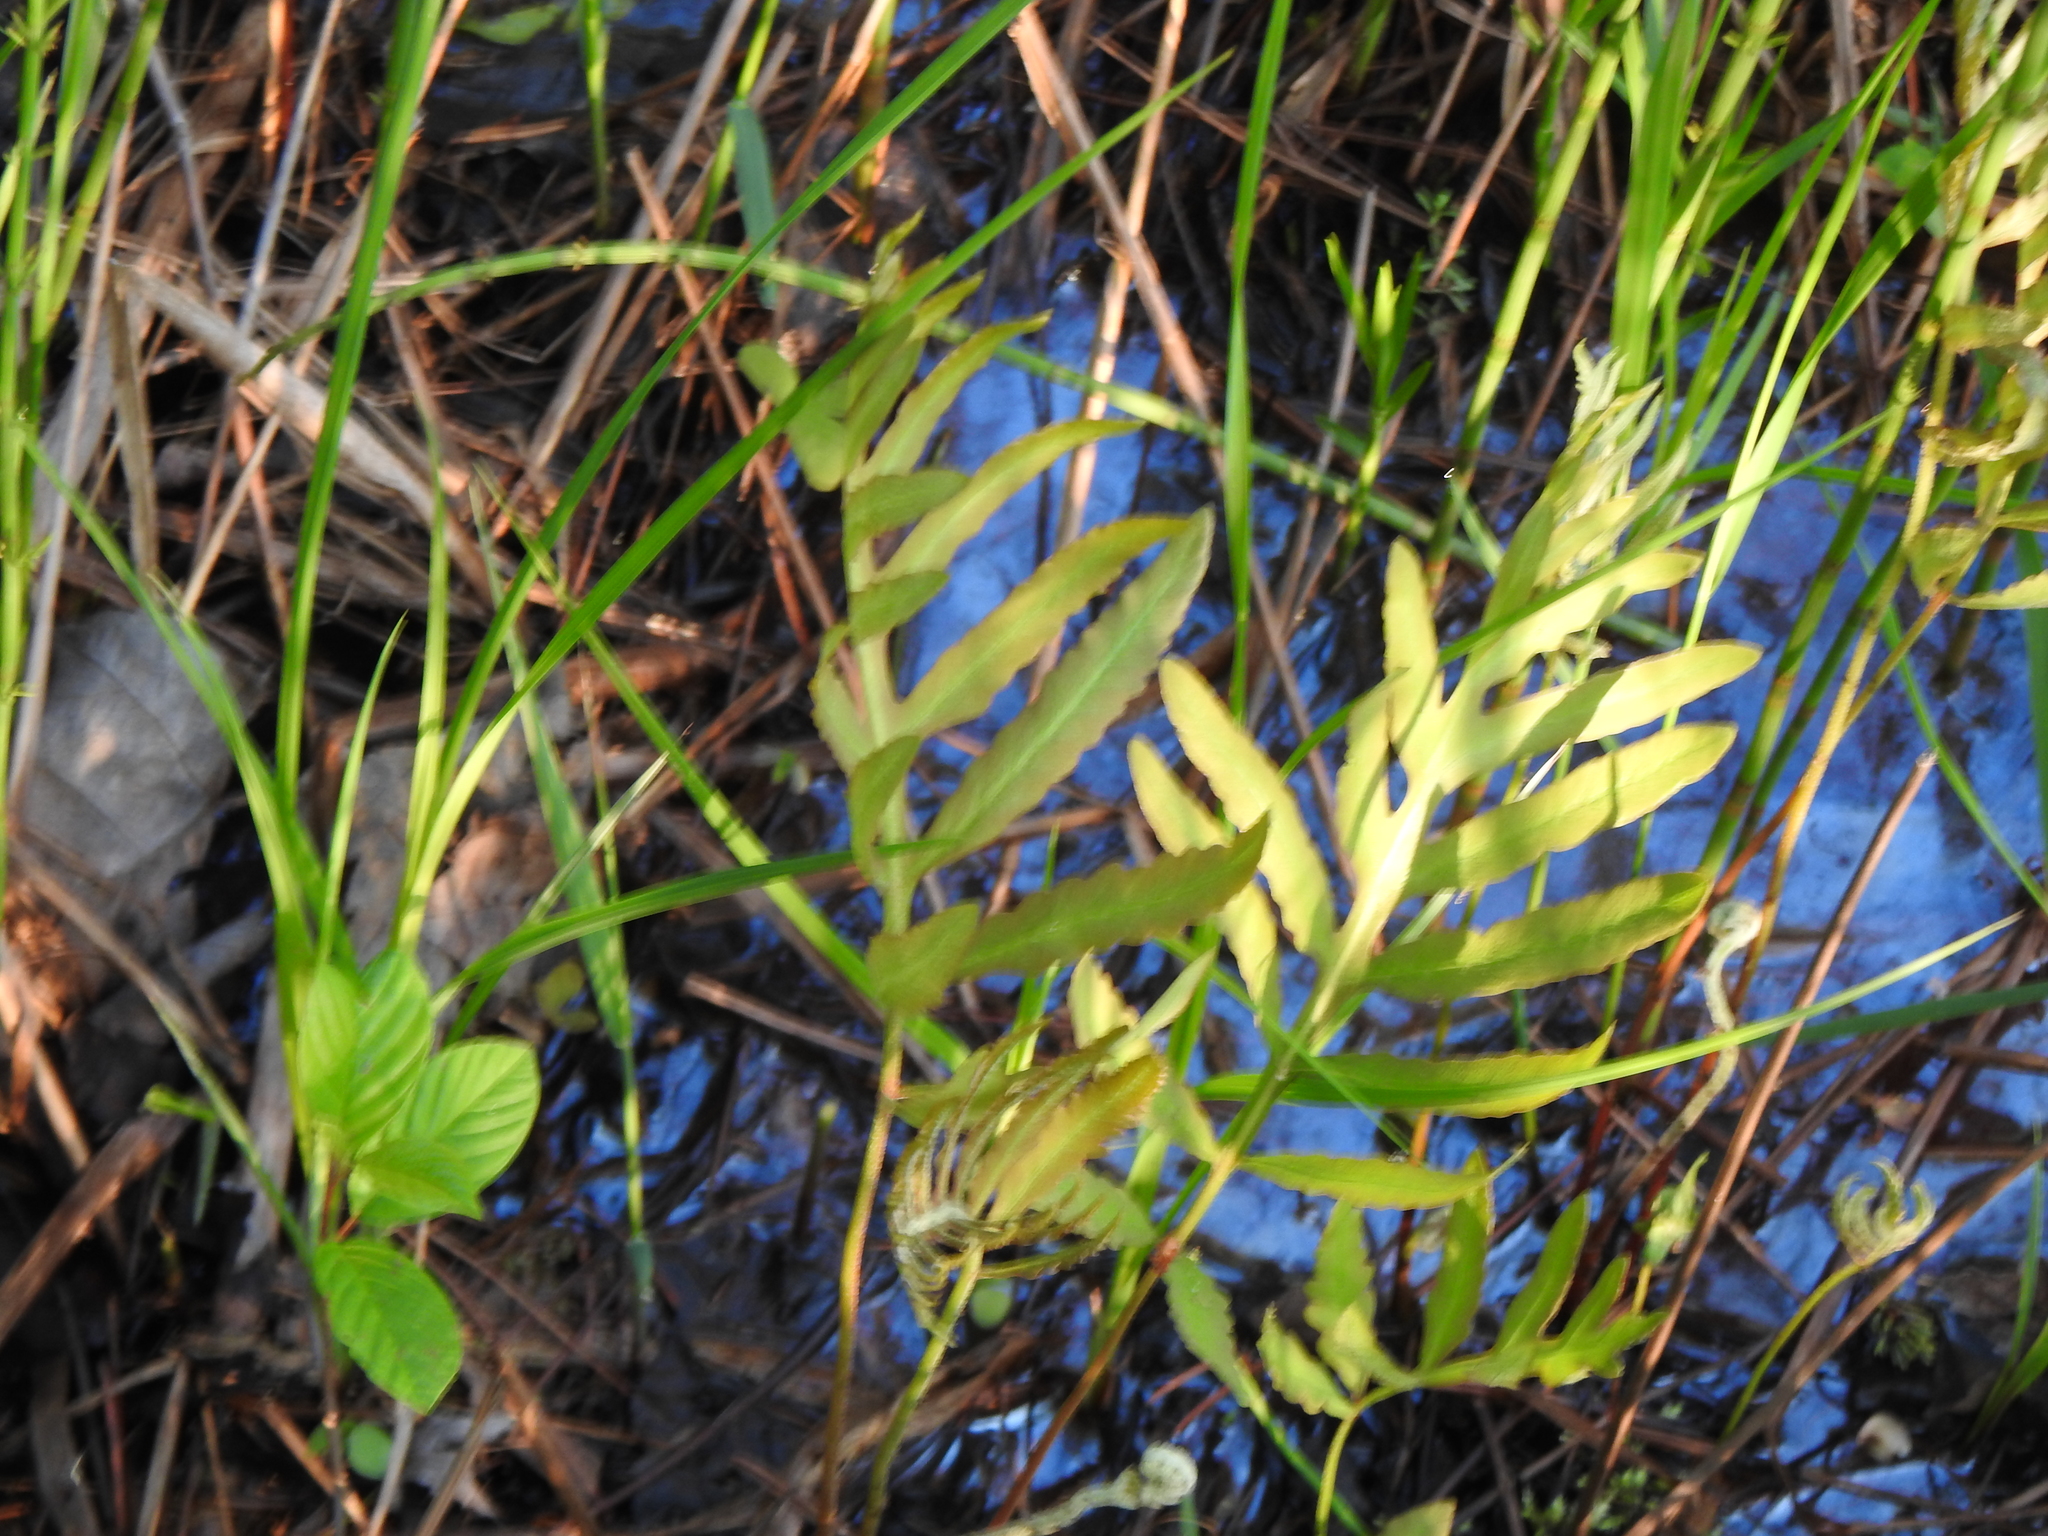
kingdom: Plantae
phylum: Tracheophyta
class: Polypodiopsida
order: Polypodiales
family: Onocleaceae
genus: Onoclea
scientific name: Onoclea sensibilis
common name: Sensitive fern
